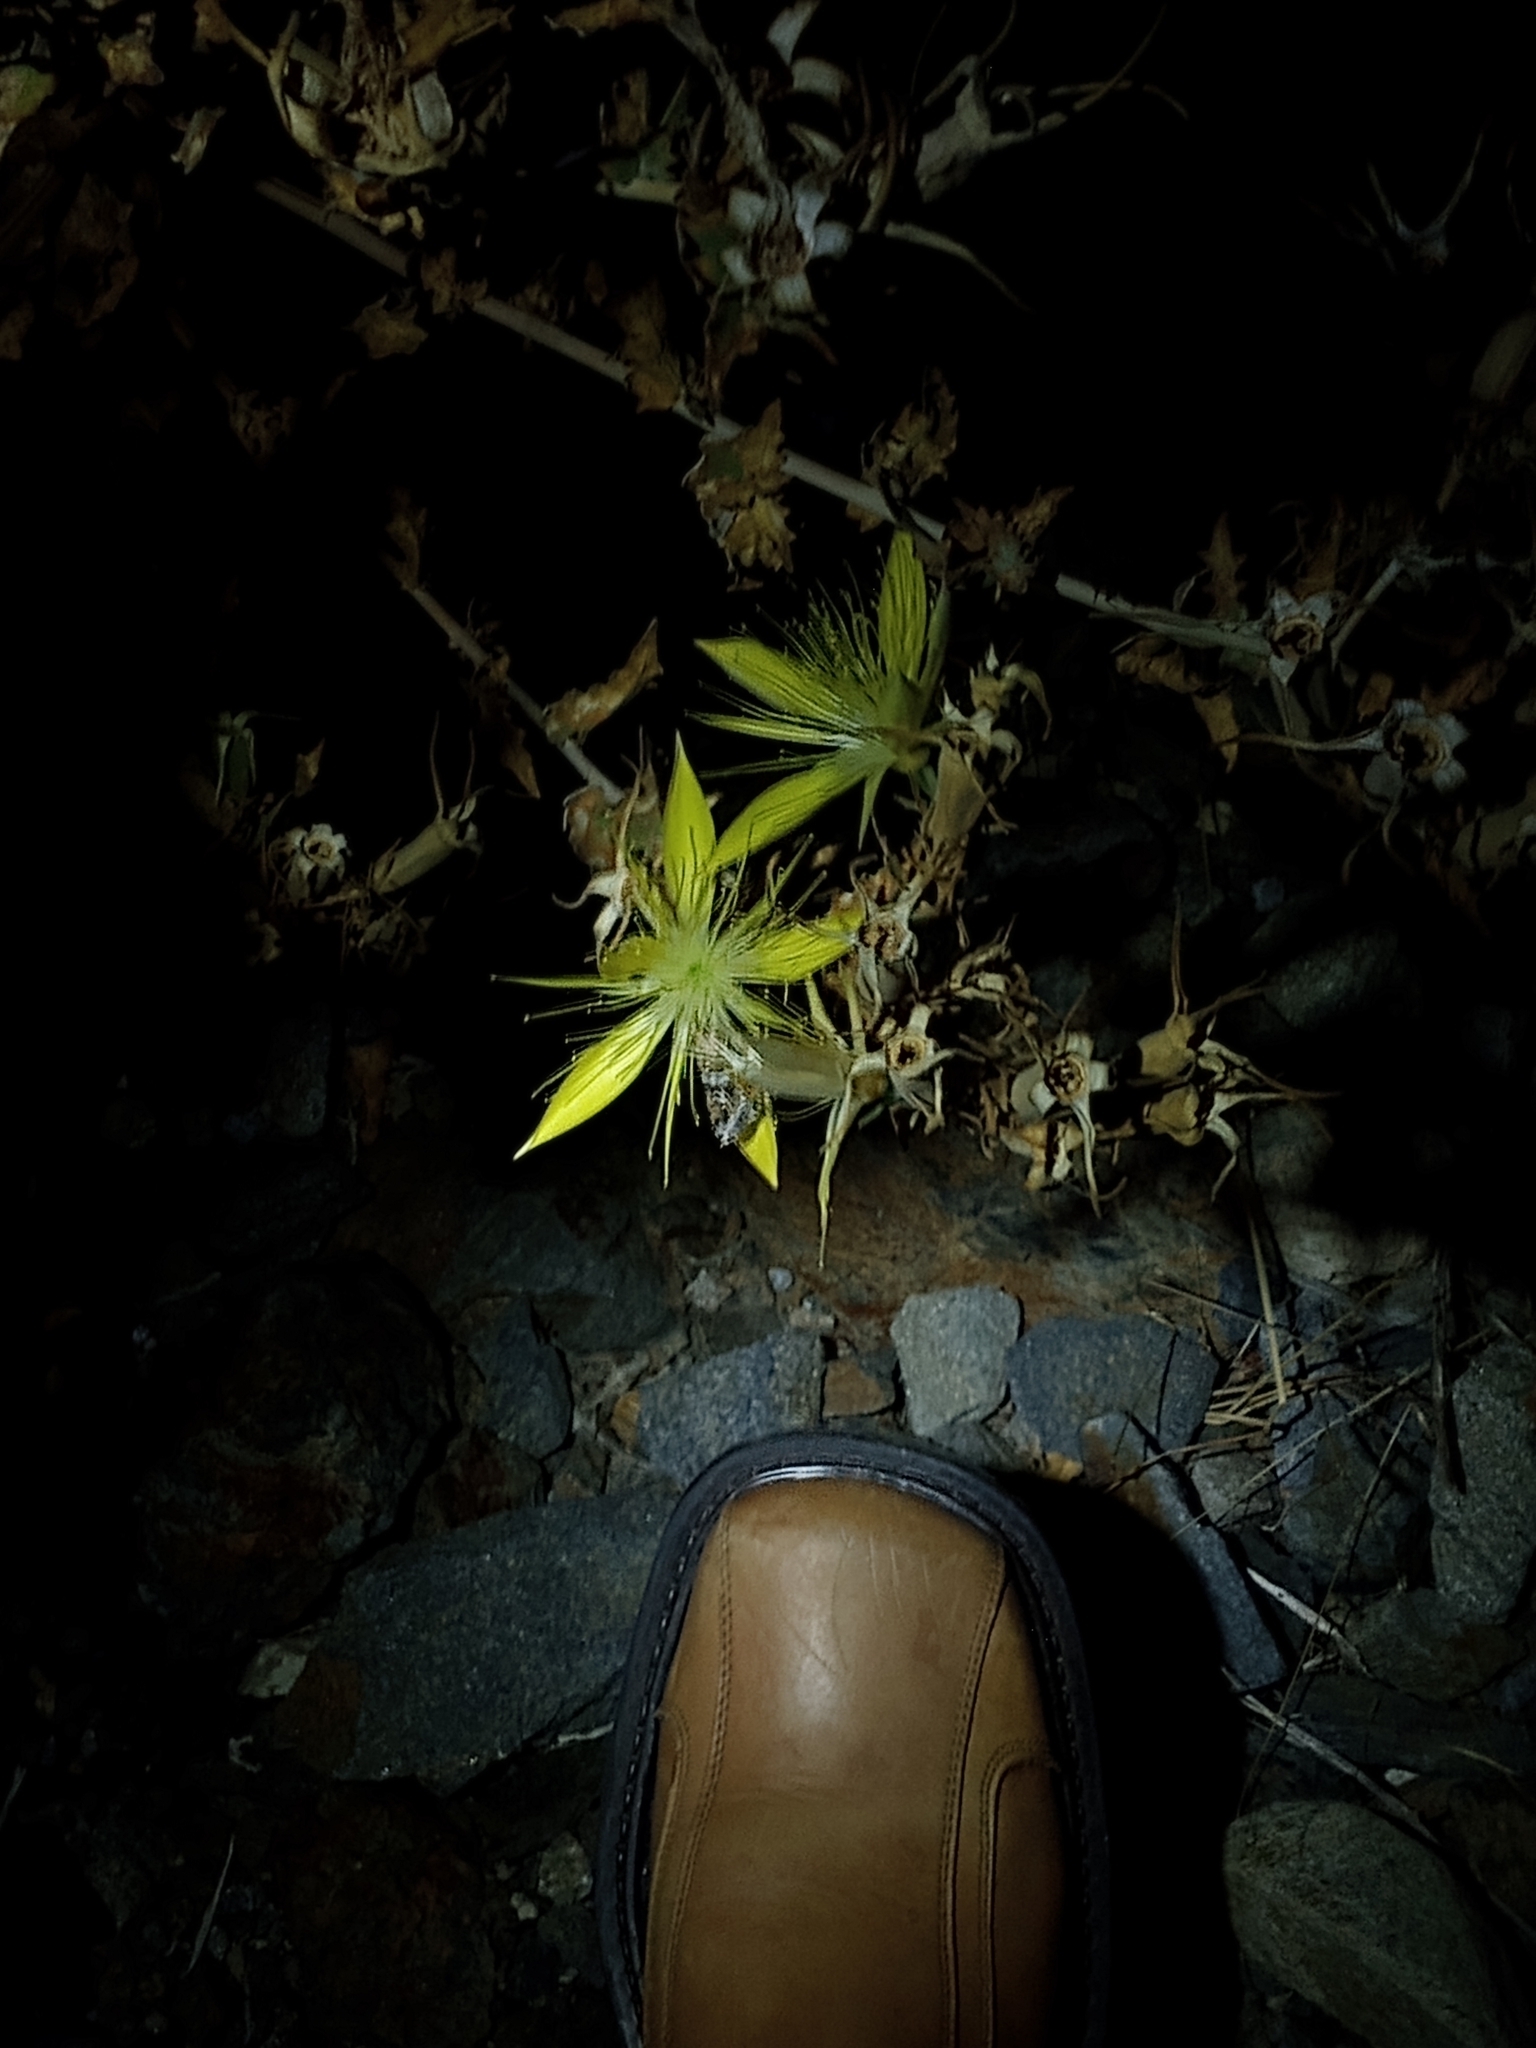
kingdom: Plantae
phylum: Tracheophyta
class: Magnoliopsida
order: Cornales
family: Loasaceae
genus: Mentzelia
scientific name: Mentzelia laevicaulis
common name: Smooth-stem blazingstar
